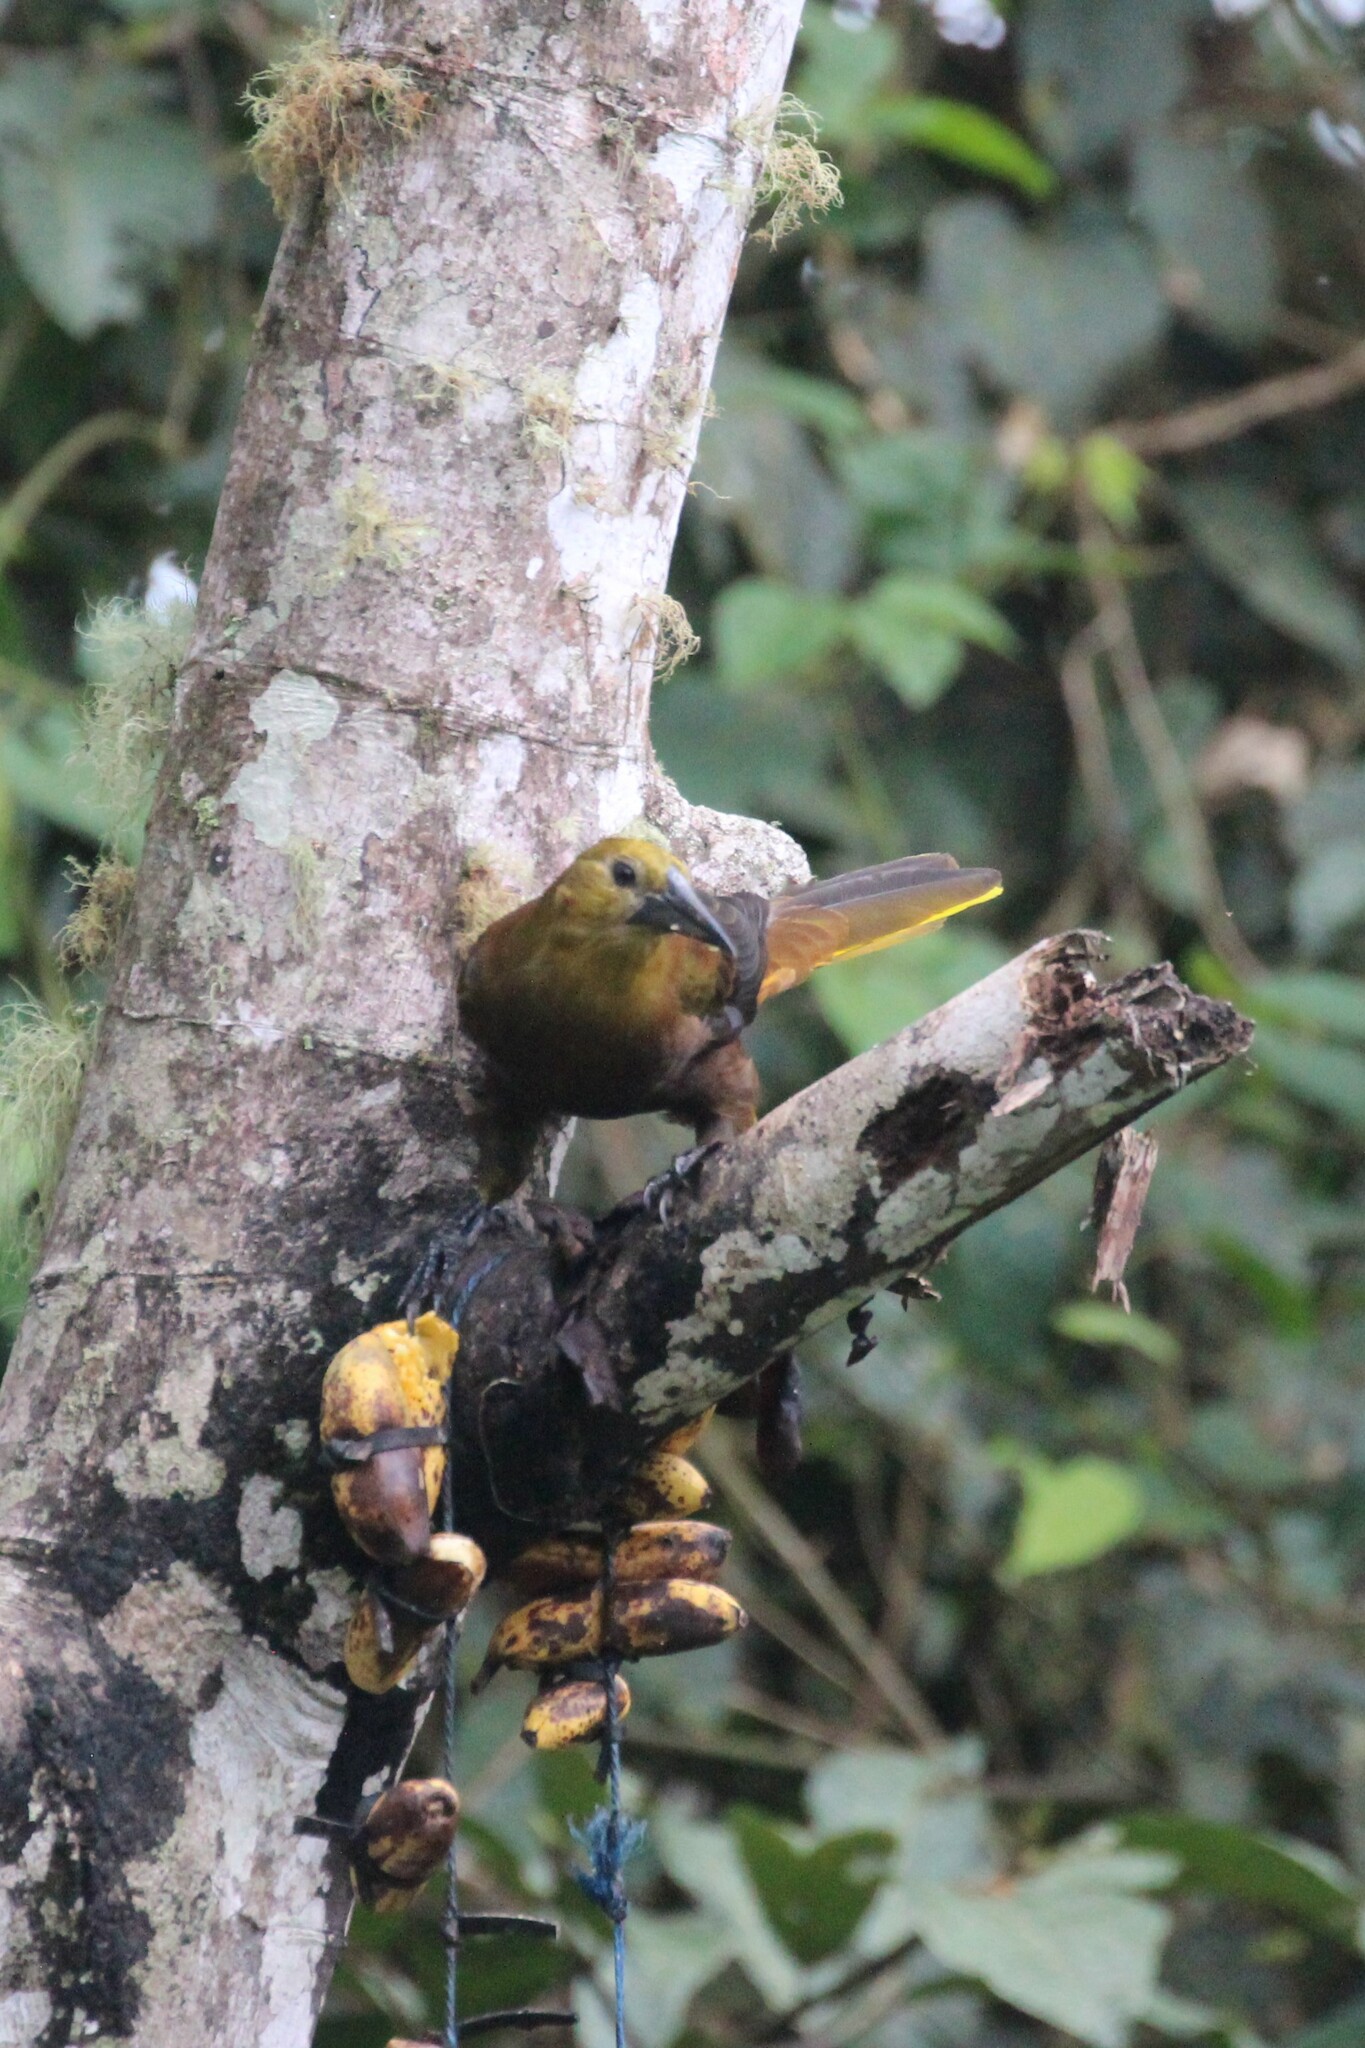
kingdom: Animalia
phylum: Chordata
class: Aves
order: Passeriformes
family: Icteridae
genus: Psarocolius
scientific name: Psarocolius angustifrons
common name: Russet-backed oropendola
